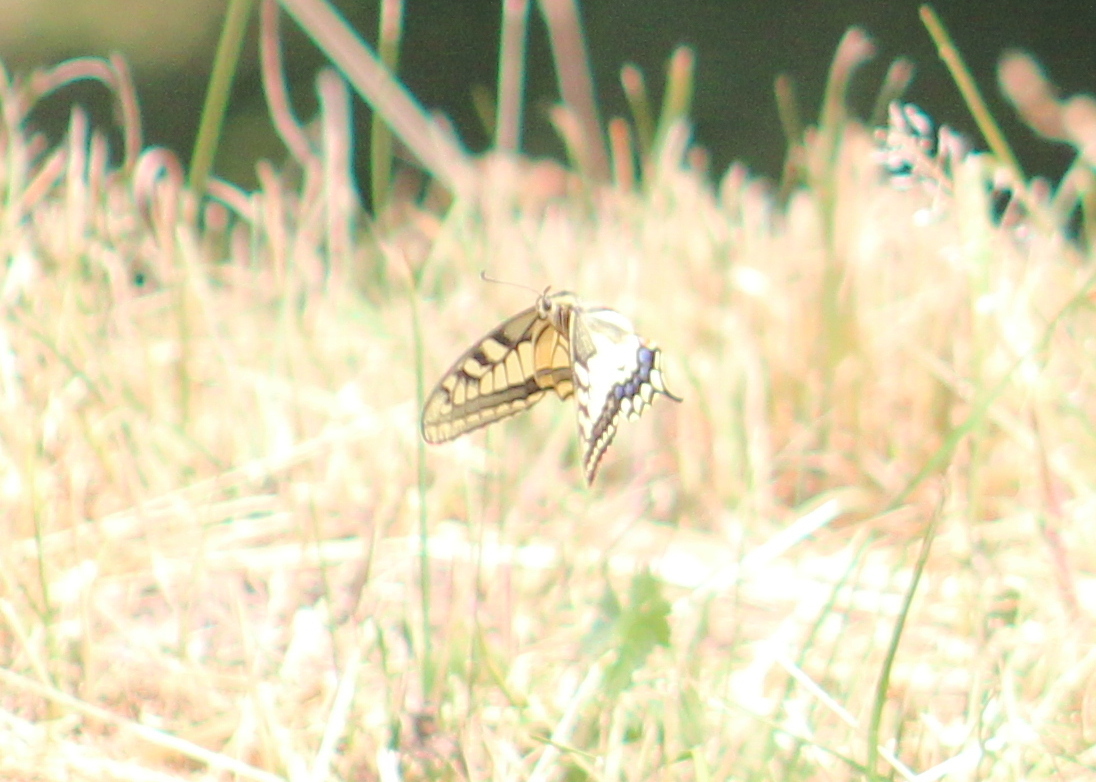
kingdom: Animalia
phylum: Arthropoda
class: Insecta
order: Lepidoptera
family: Papilionidae
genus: Papilio
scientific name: Papilio machaon
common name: Swallowtail
